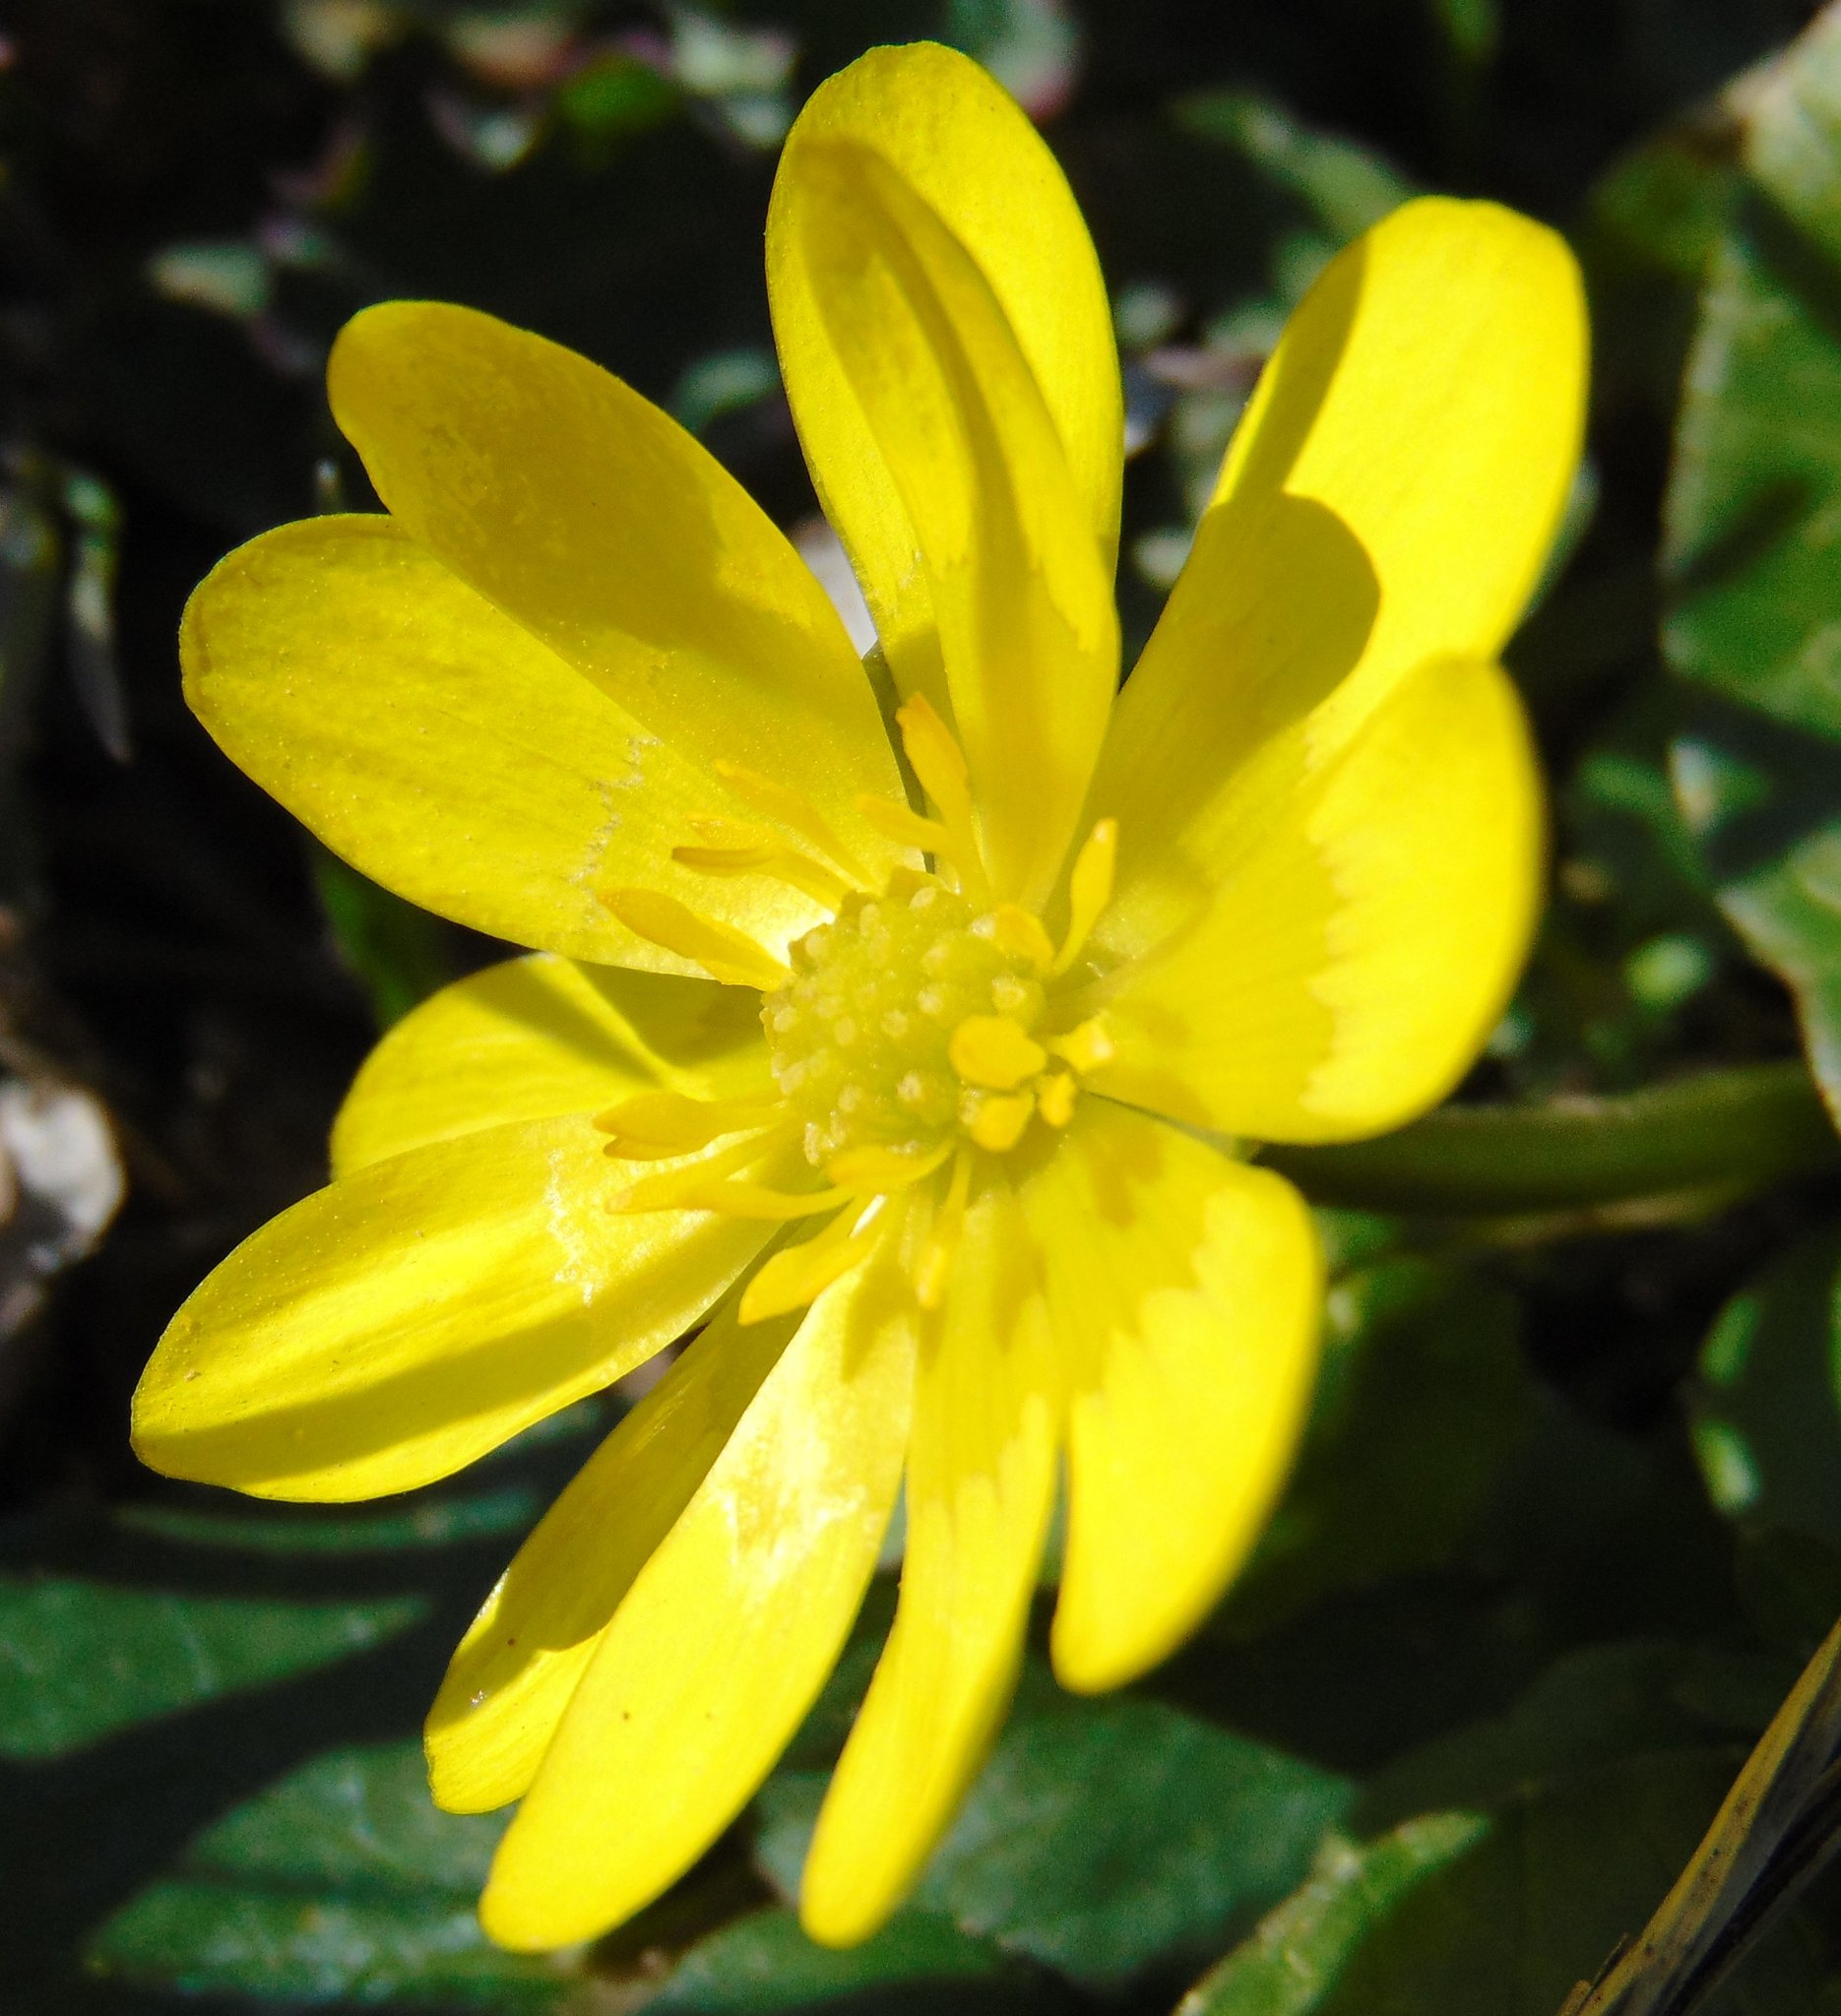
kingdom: Plantae
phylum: Tracheophyta
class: Magnoliopsida
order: Ranunculales
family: Ranunculaceae
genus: Ficaria
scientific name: Ficaria verna
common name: Lesser celandine
